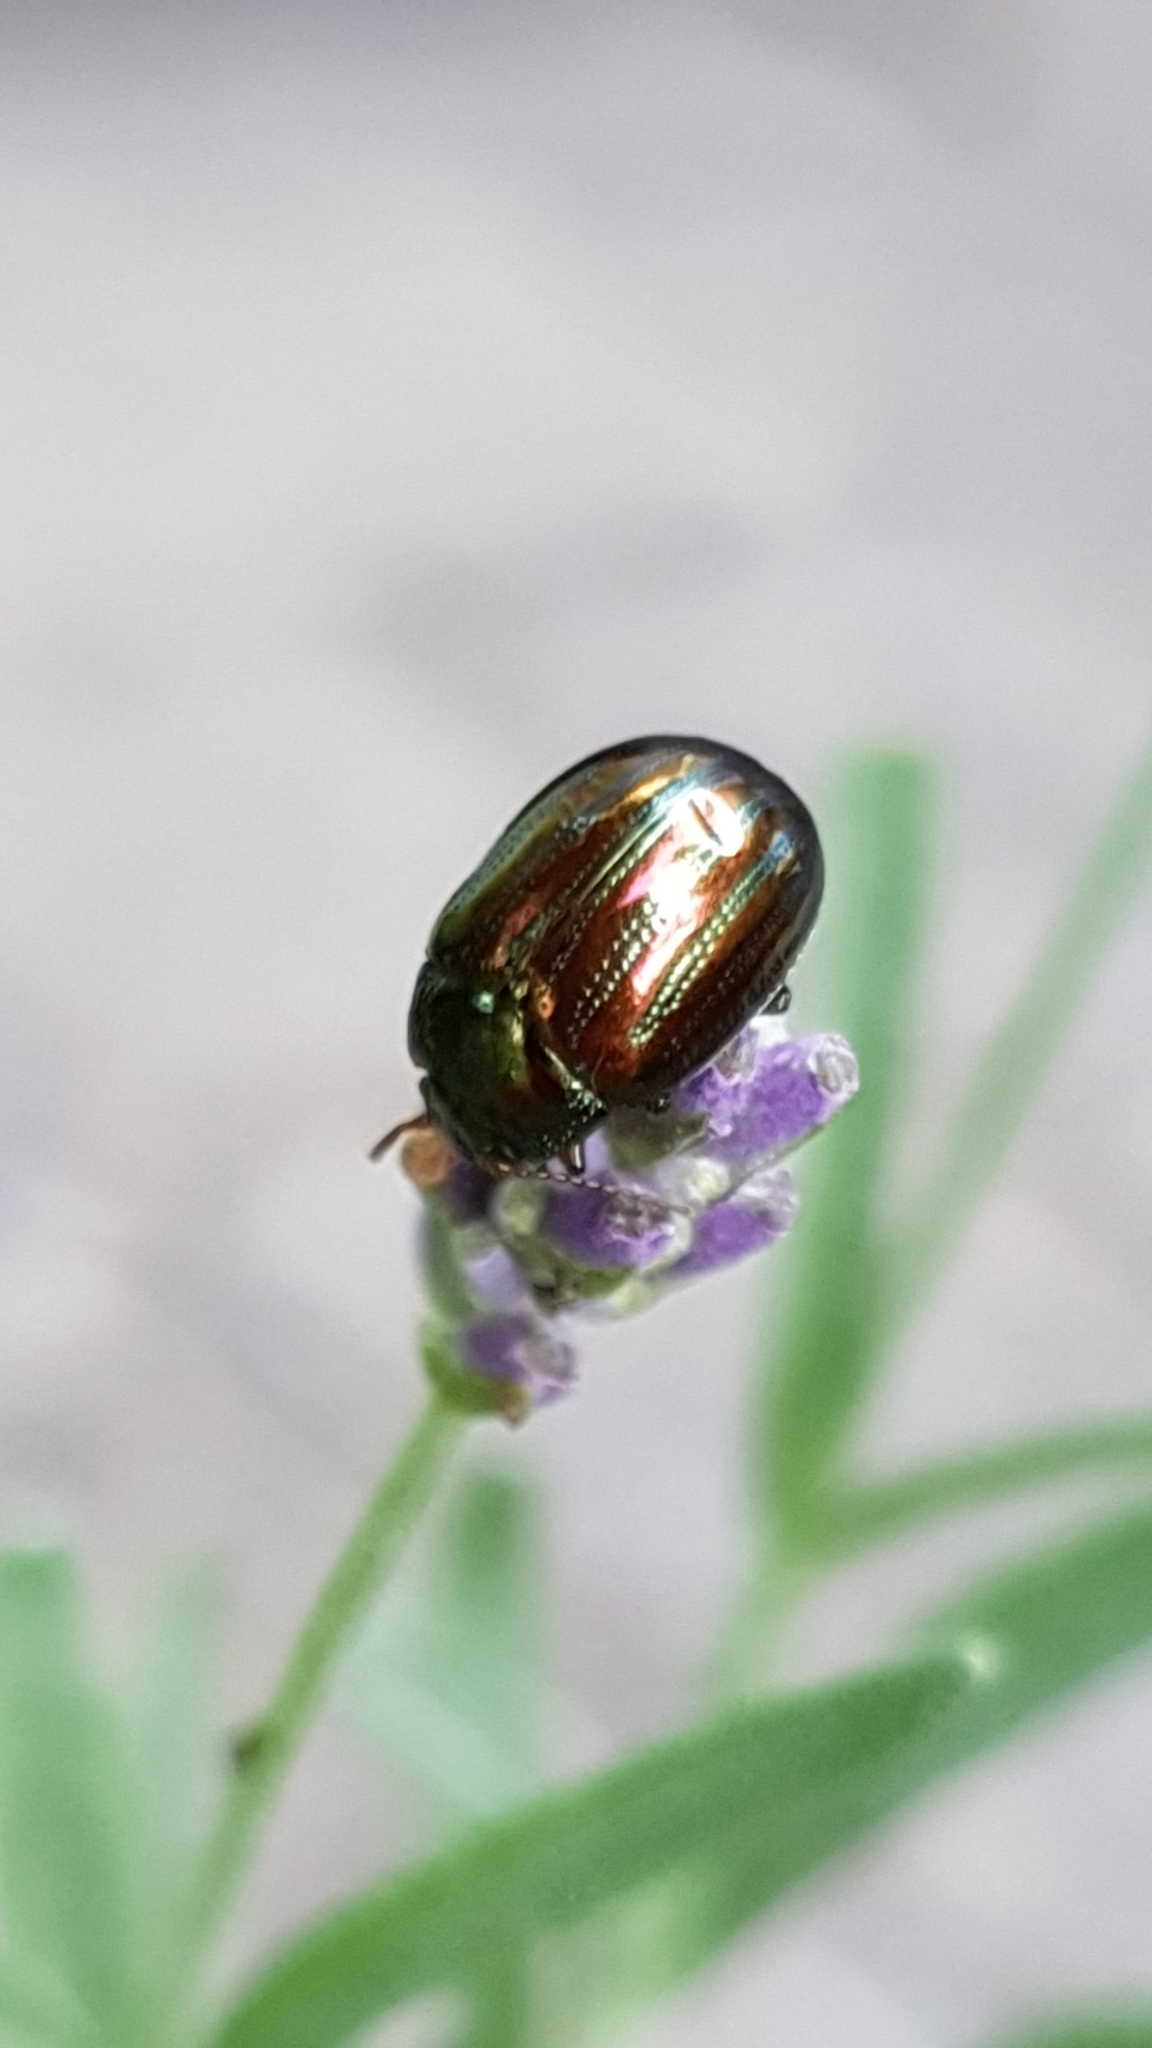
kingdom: Animalia
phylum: Arthropoda
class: Insecta
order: Coleoptera
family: Chrysomelidae
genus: Chrysolina
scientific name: Chrysolina americana
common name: Rosemary beetle
